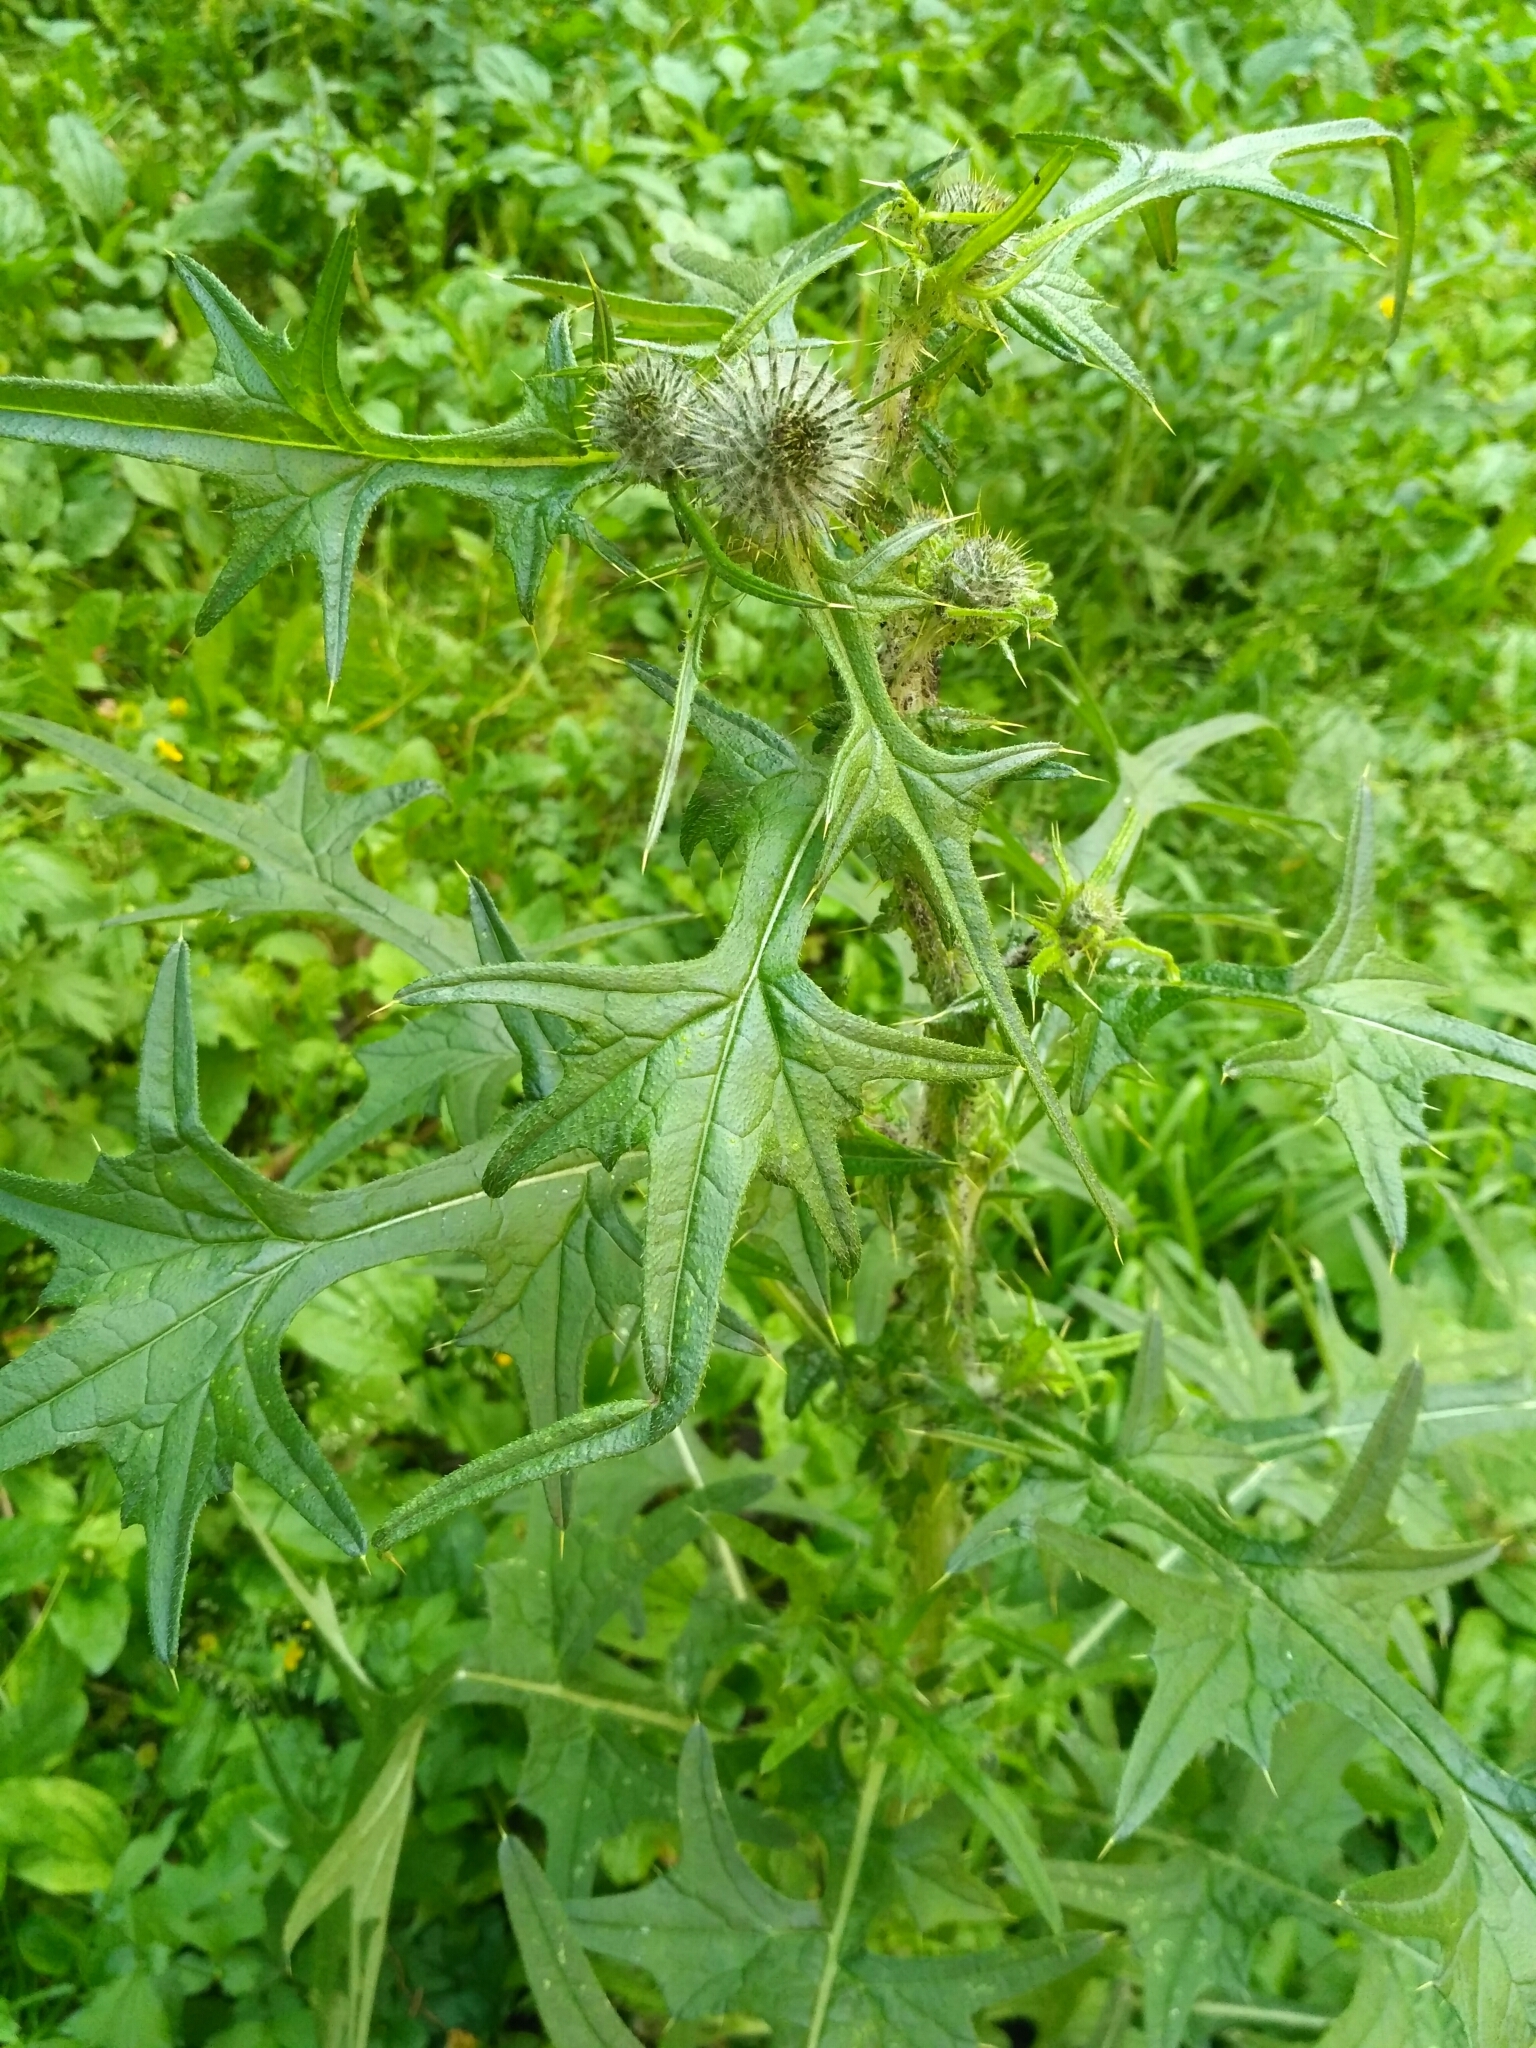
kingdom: Plantae
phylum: Tracheophyta
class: Magnoliopsida
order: Asterales
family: Asteraceae
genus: Cirsium
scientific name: Cirsium vulgare
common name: Bull thistle
